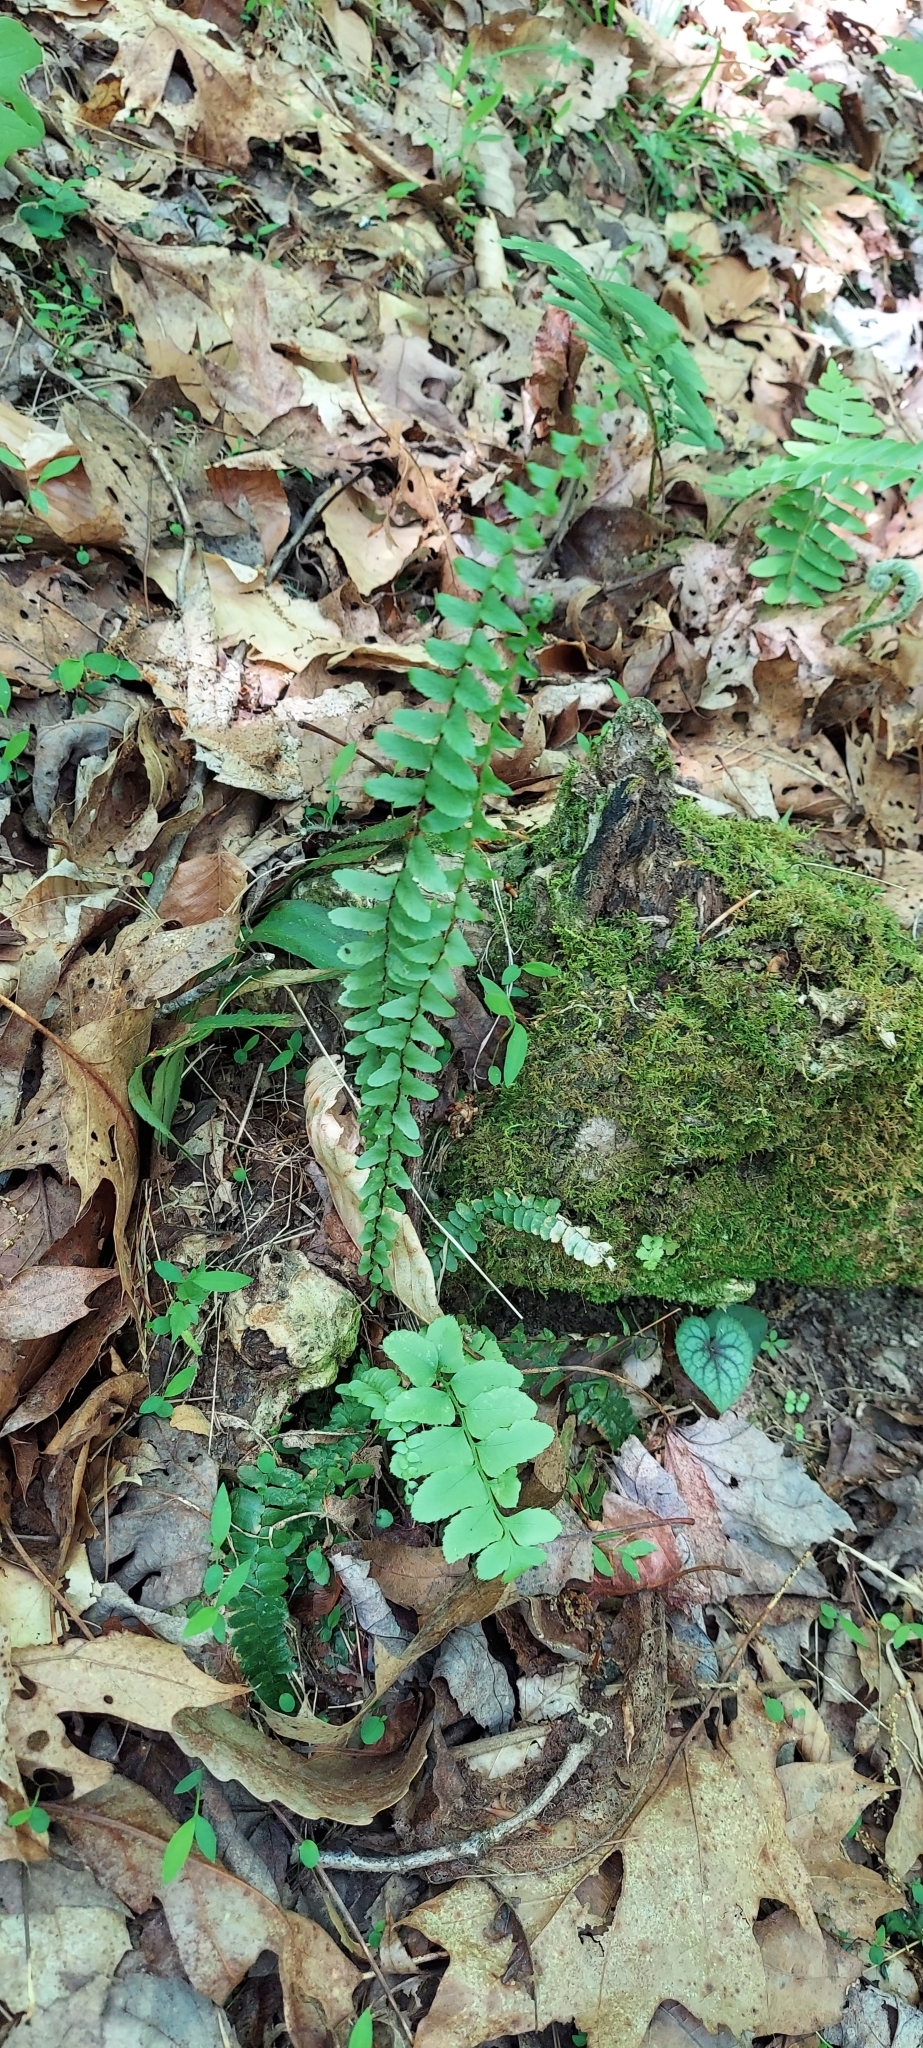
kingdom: Plantae
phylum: Tracheophyta
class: Polypodiopsida
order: Polypodiales
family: Aspleniaceae
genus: Asplenium
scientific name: Asplenium platyneuron
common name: Ebony spleenwort
